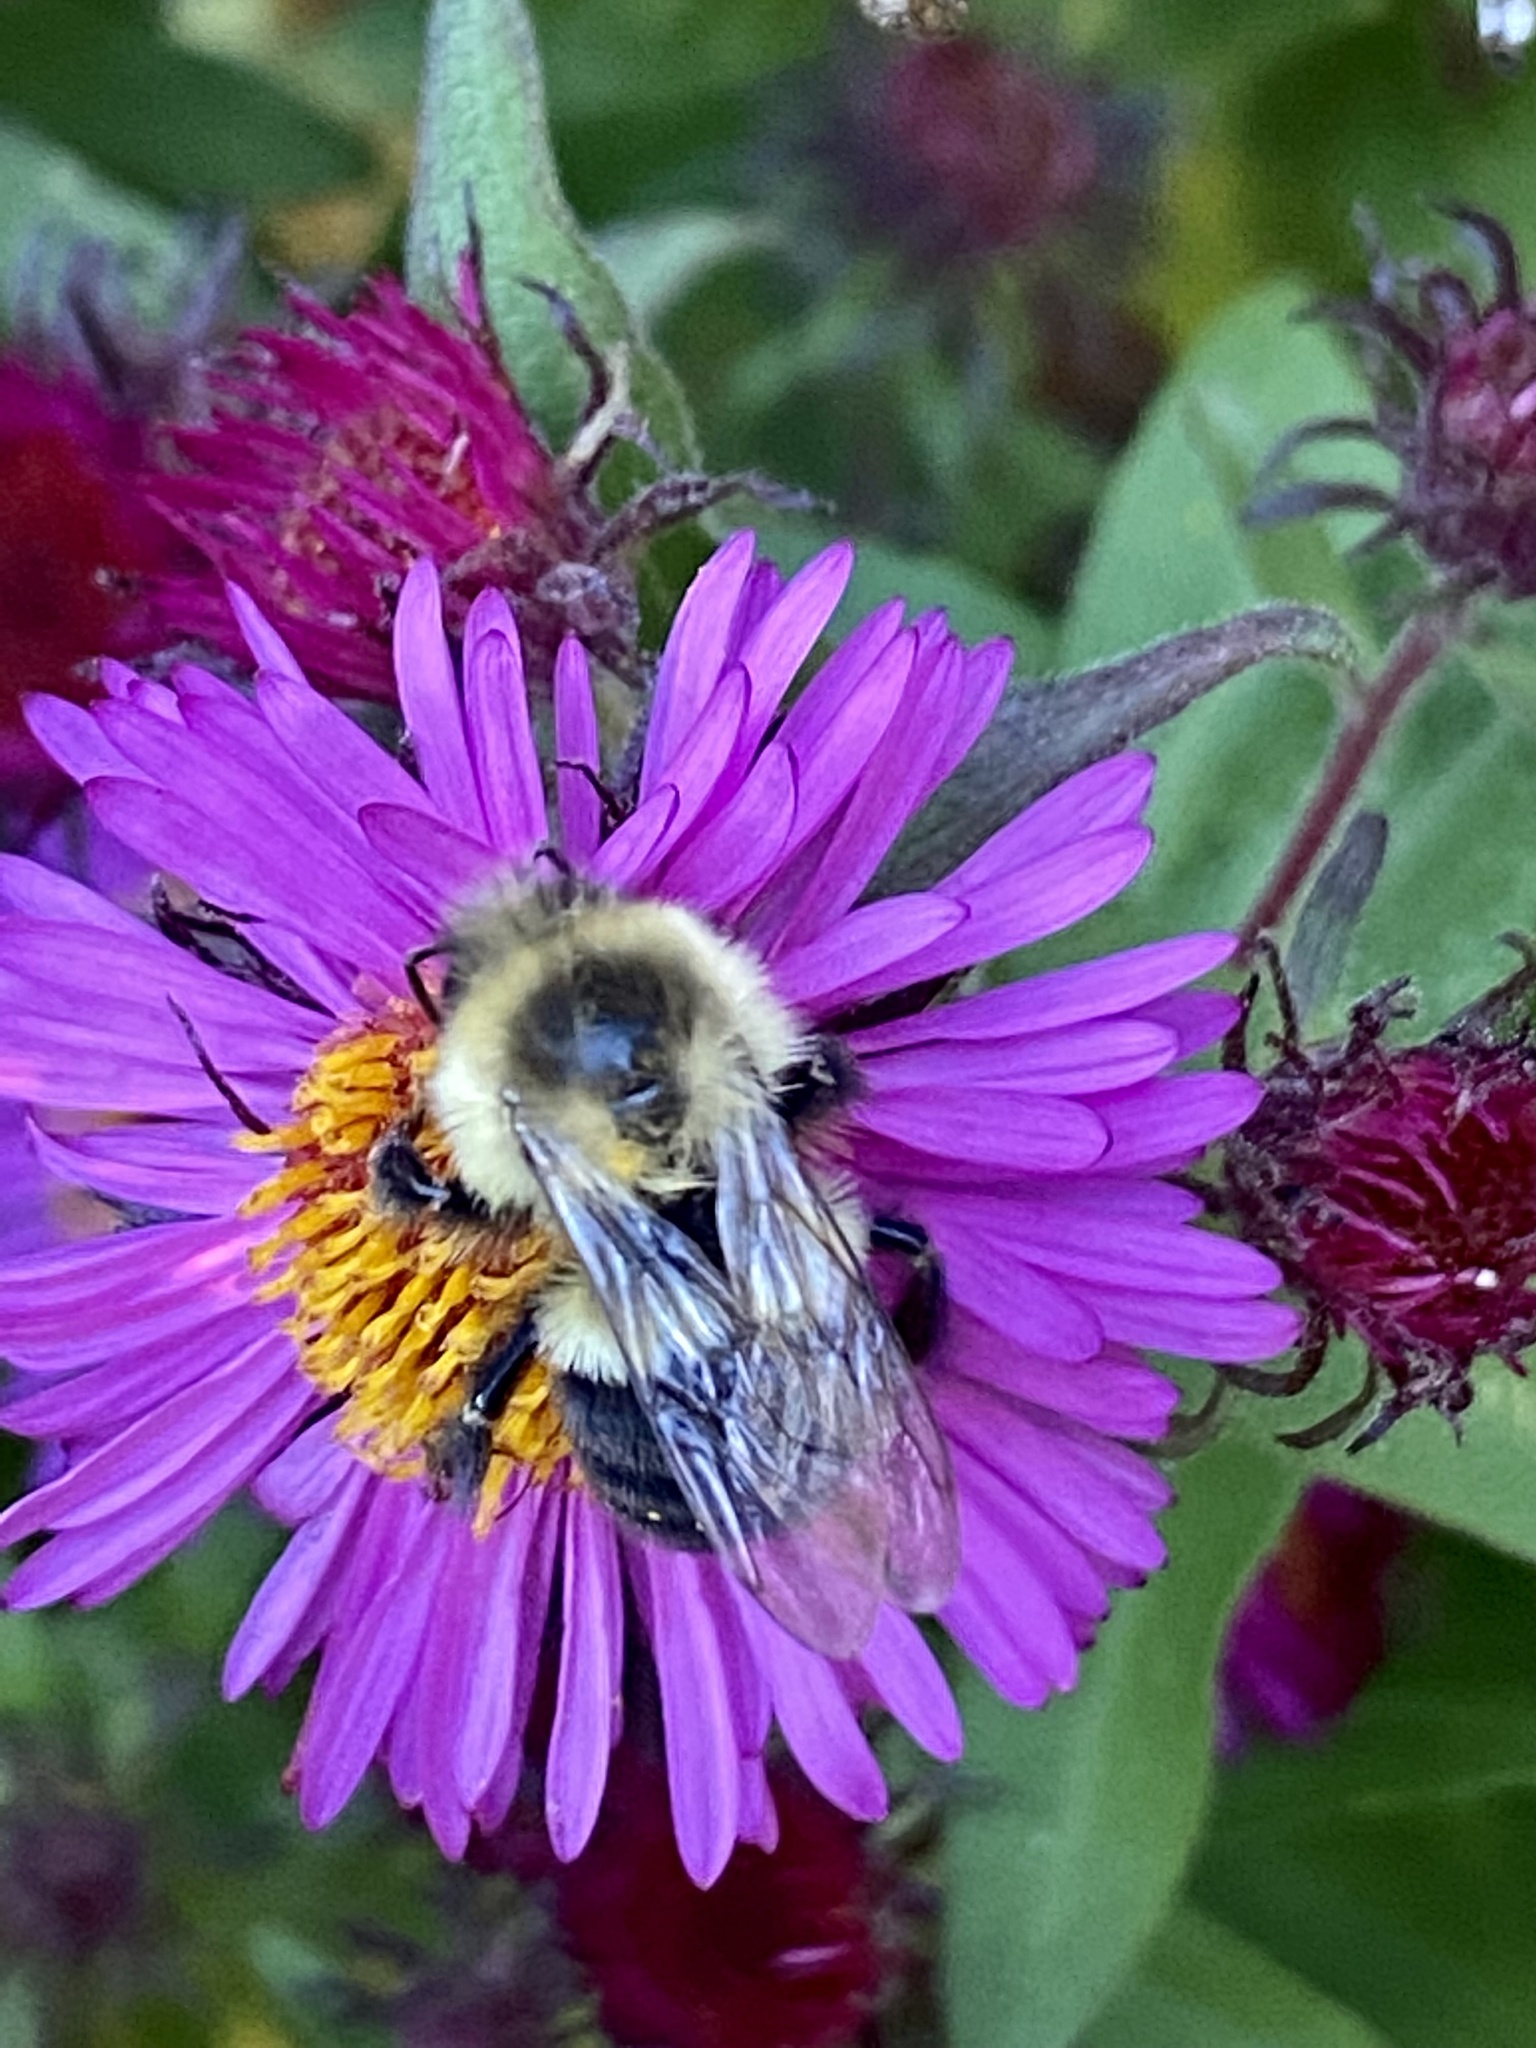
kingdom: Animalia
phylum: Arthropoda
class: Insecta
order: Hymenoptera
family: Apidae
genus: Bombus
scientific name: Bombus impatiens
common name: Common eastern bumble bee
